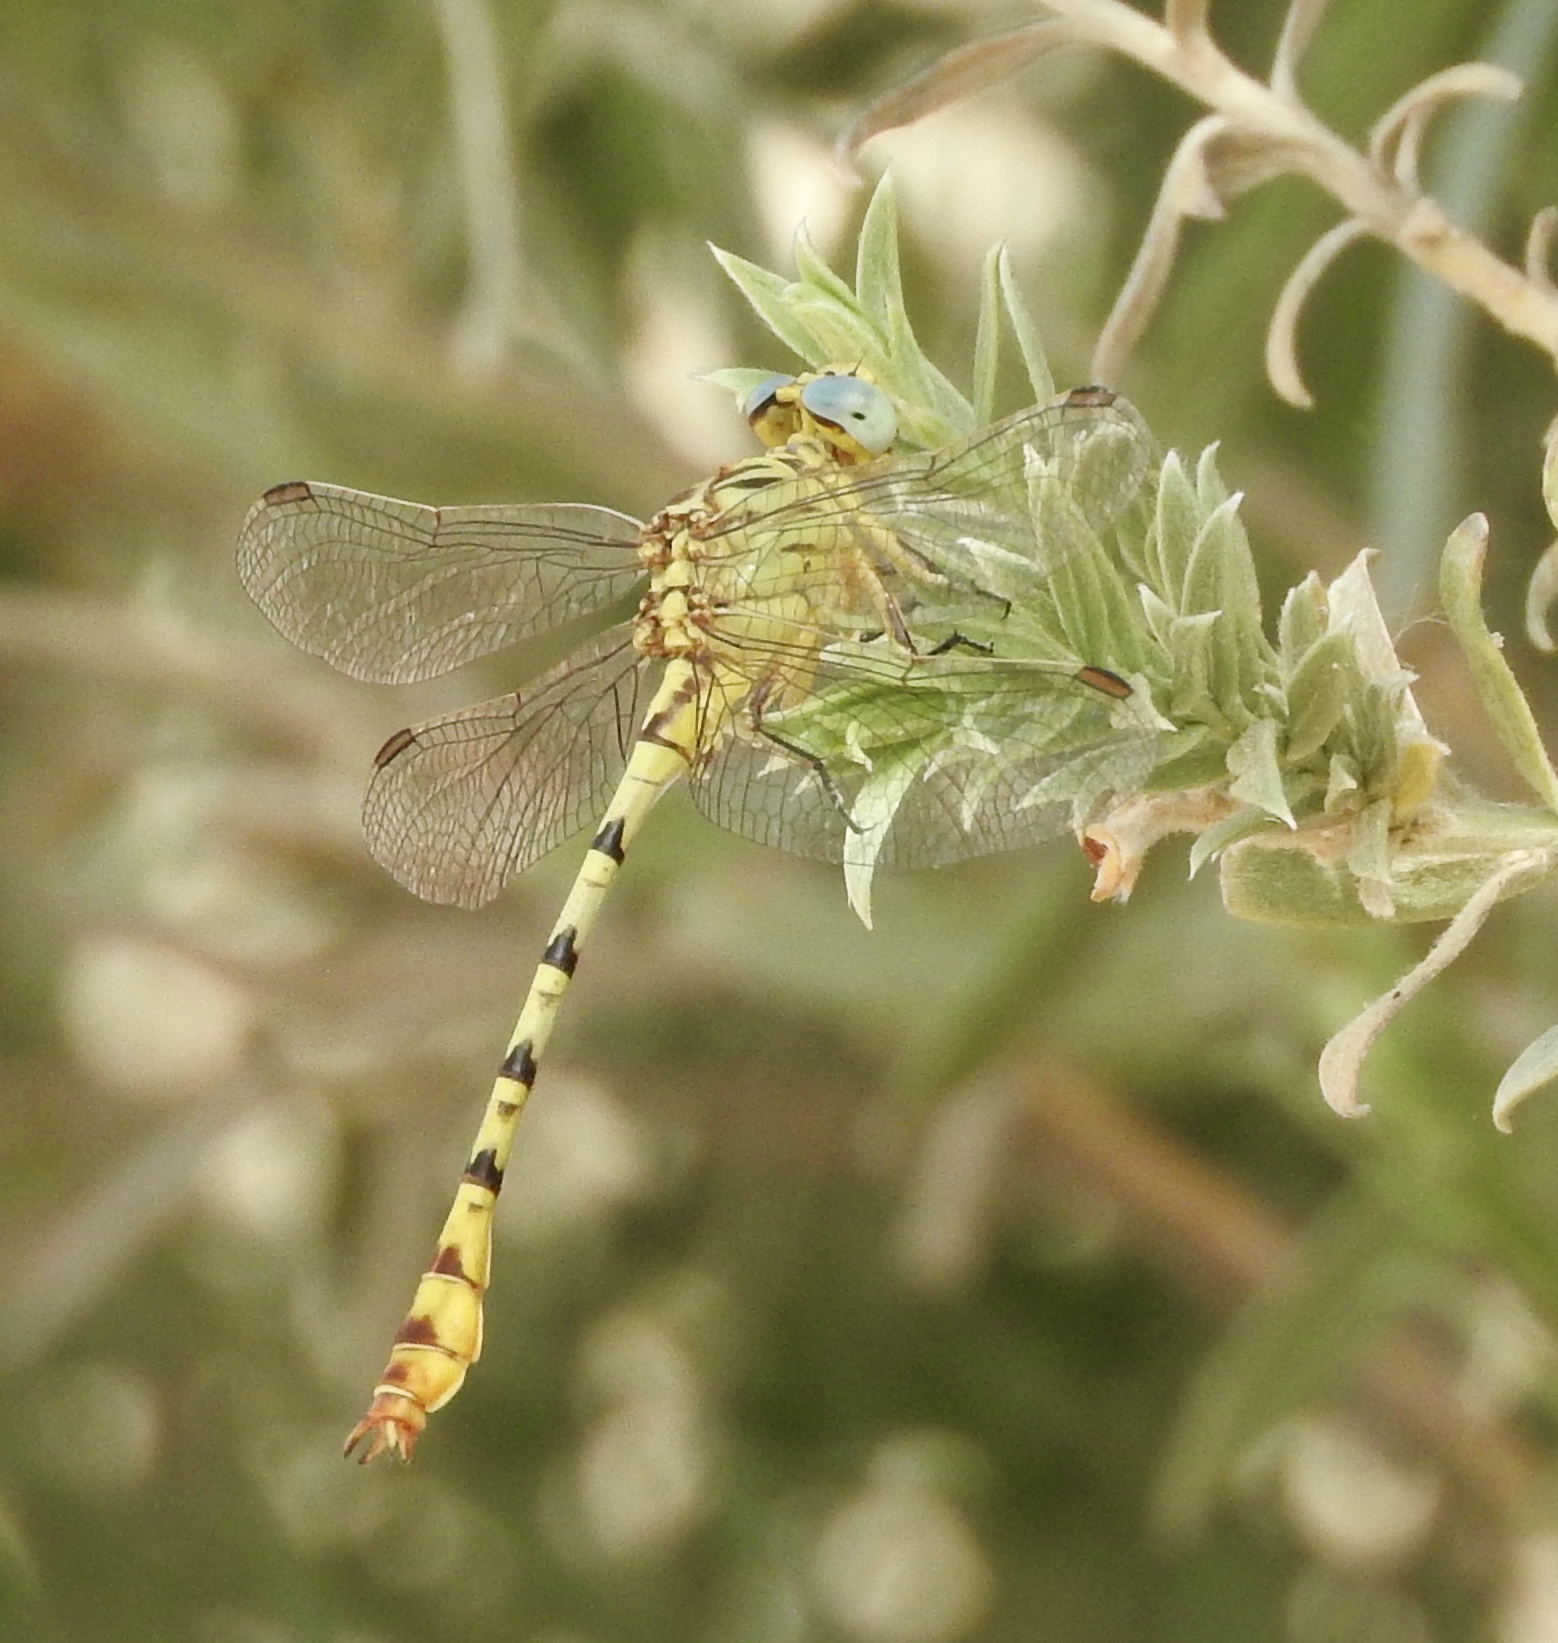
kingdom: Animalia
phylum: Arthropoda
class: Insecta
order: Odonata
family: Gomphidae
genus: Stylurus
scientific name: Stylurus intricatus
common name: Brimstone clubtail
